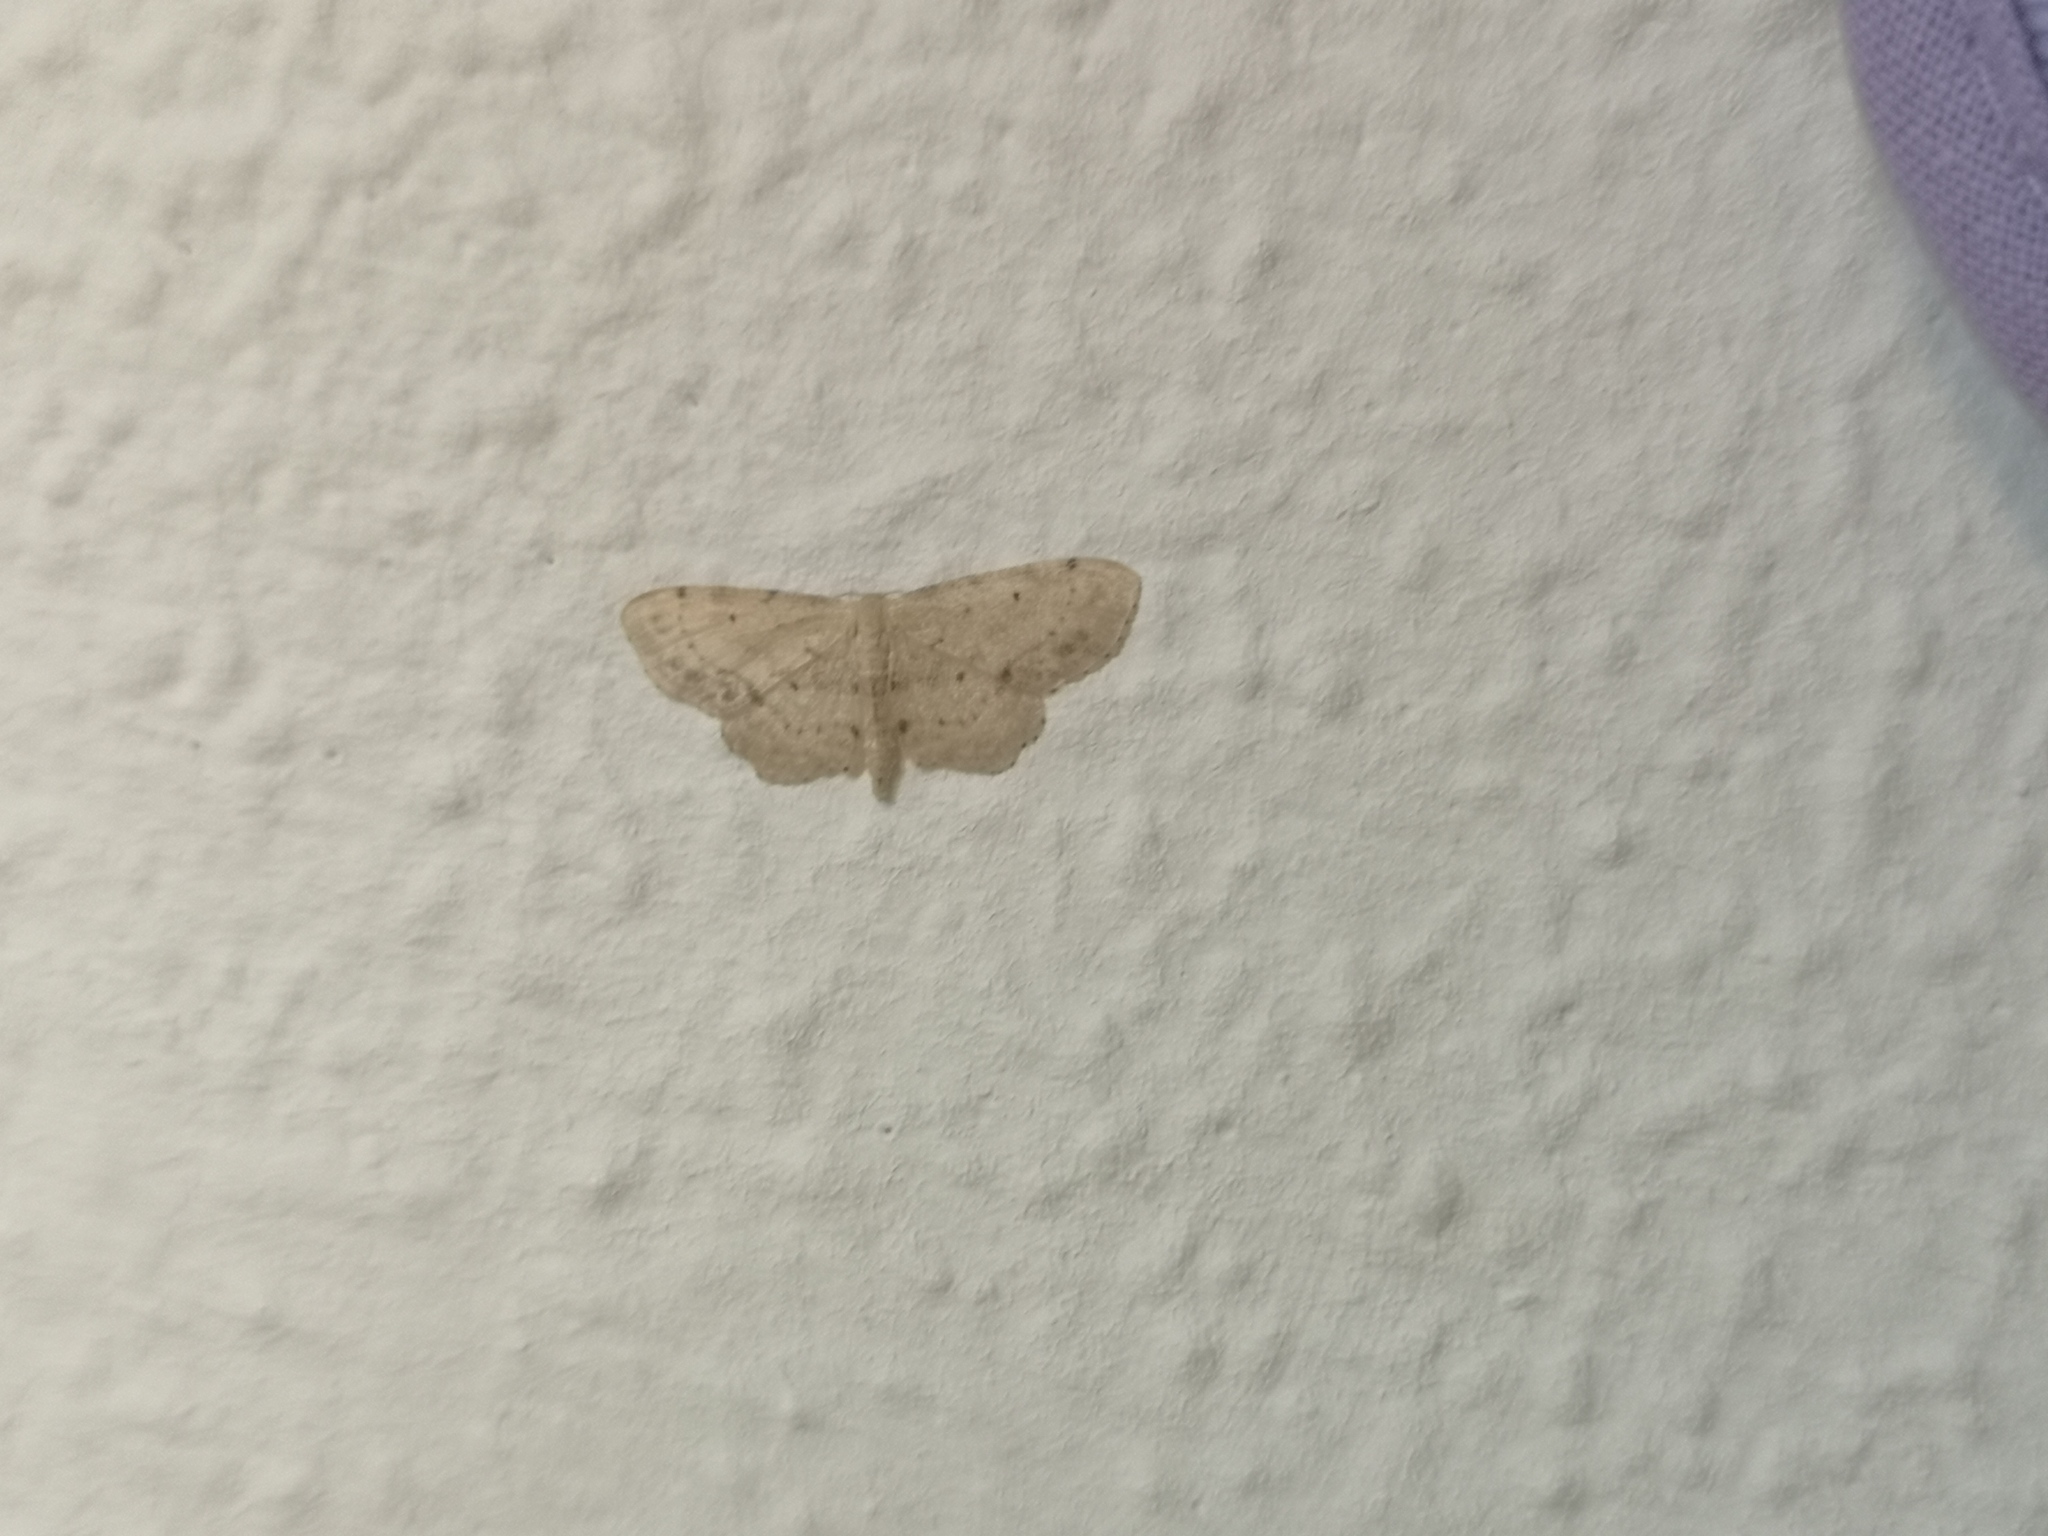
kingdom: Animalia
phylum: Arthropoda
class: Insecta
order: Lepidoptera
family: Geometridae
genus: Idaea
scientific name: Idaea dimidiata
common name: Single-dotted wave
